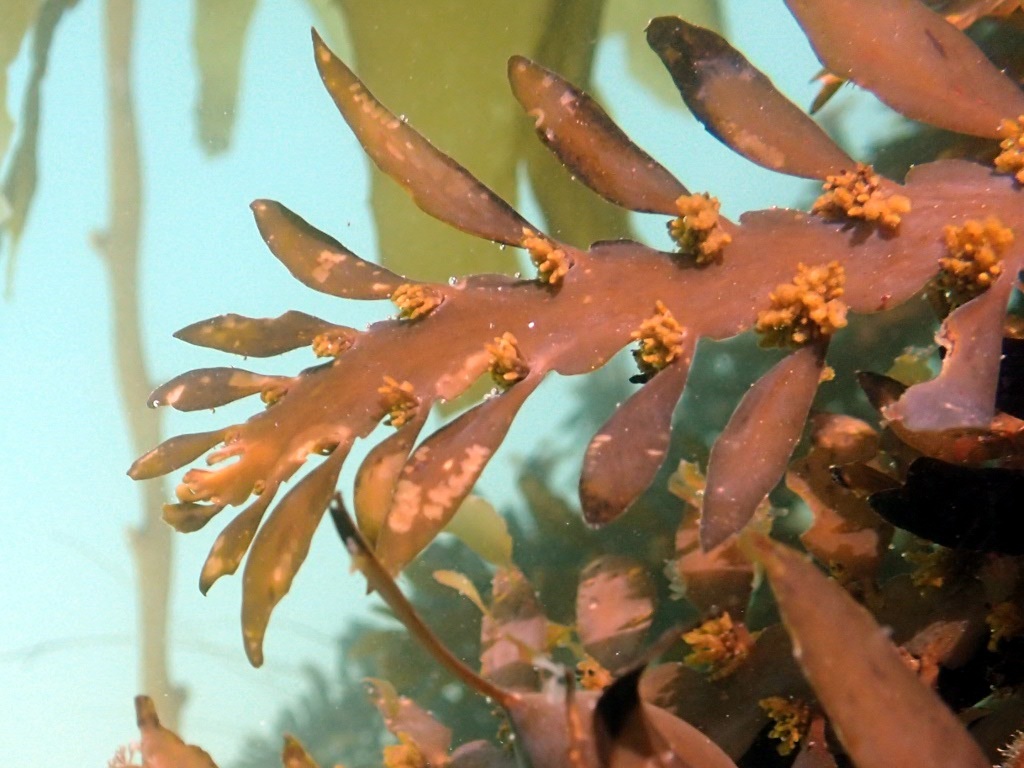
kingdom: Chromista
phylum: Ochrophyta
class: Phaeophyceae
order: Laminariales
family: Laminariaceae
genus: Macrocystis
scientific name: Macrocystis pyrifera
